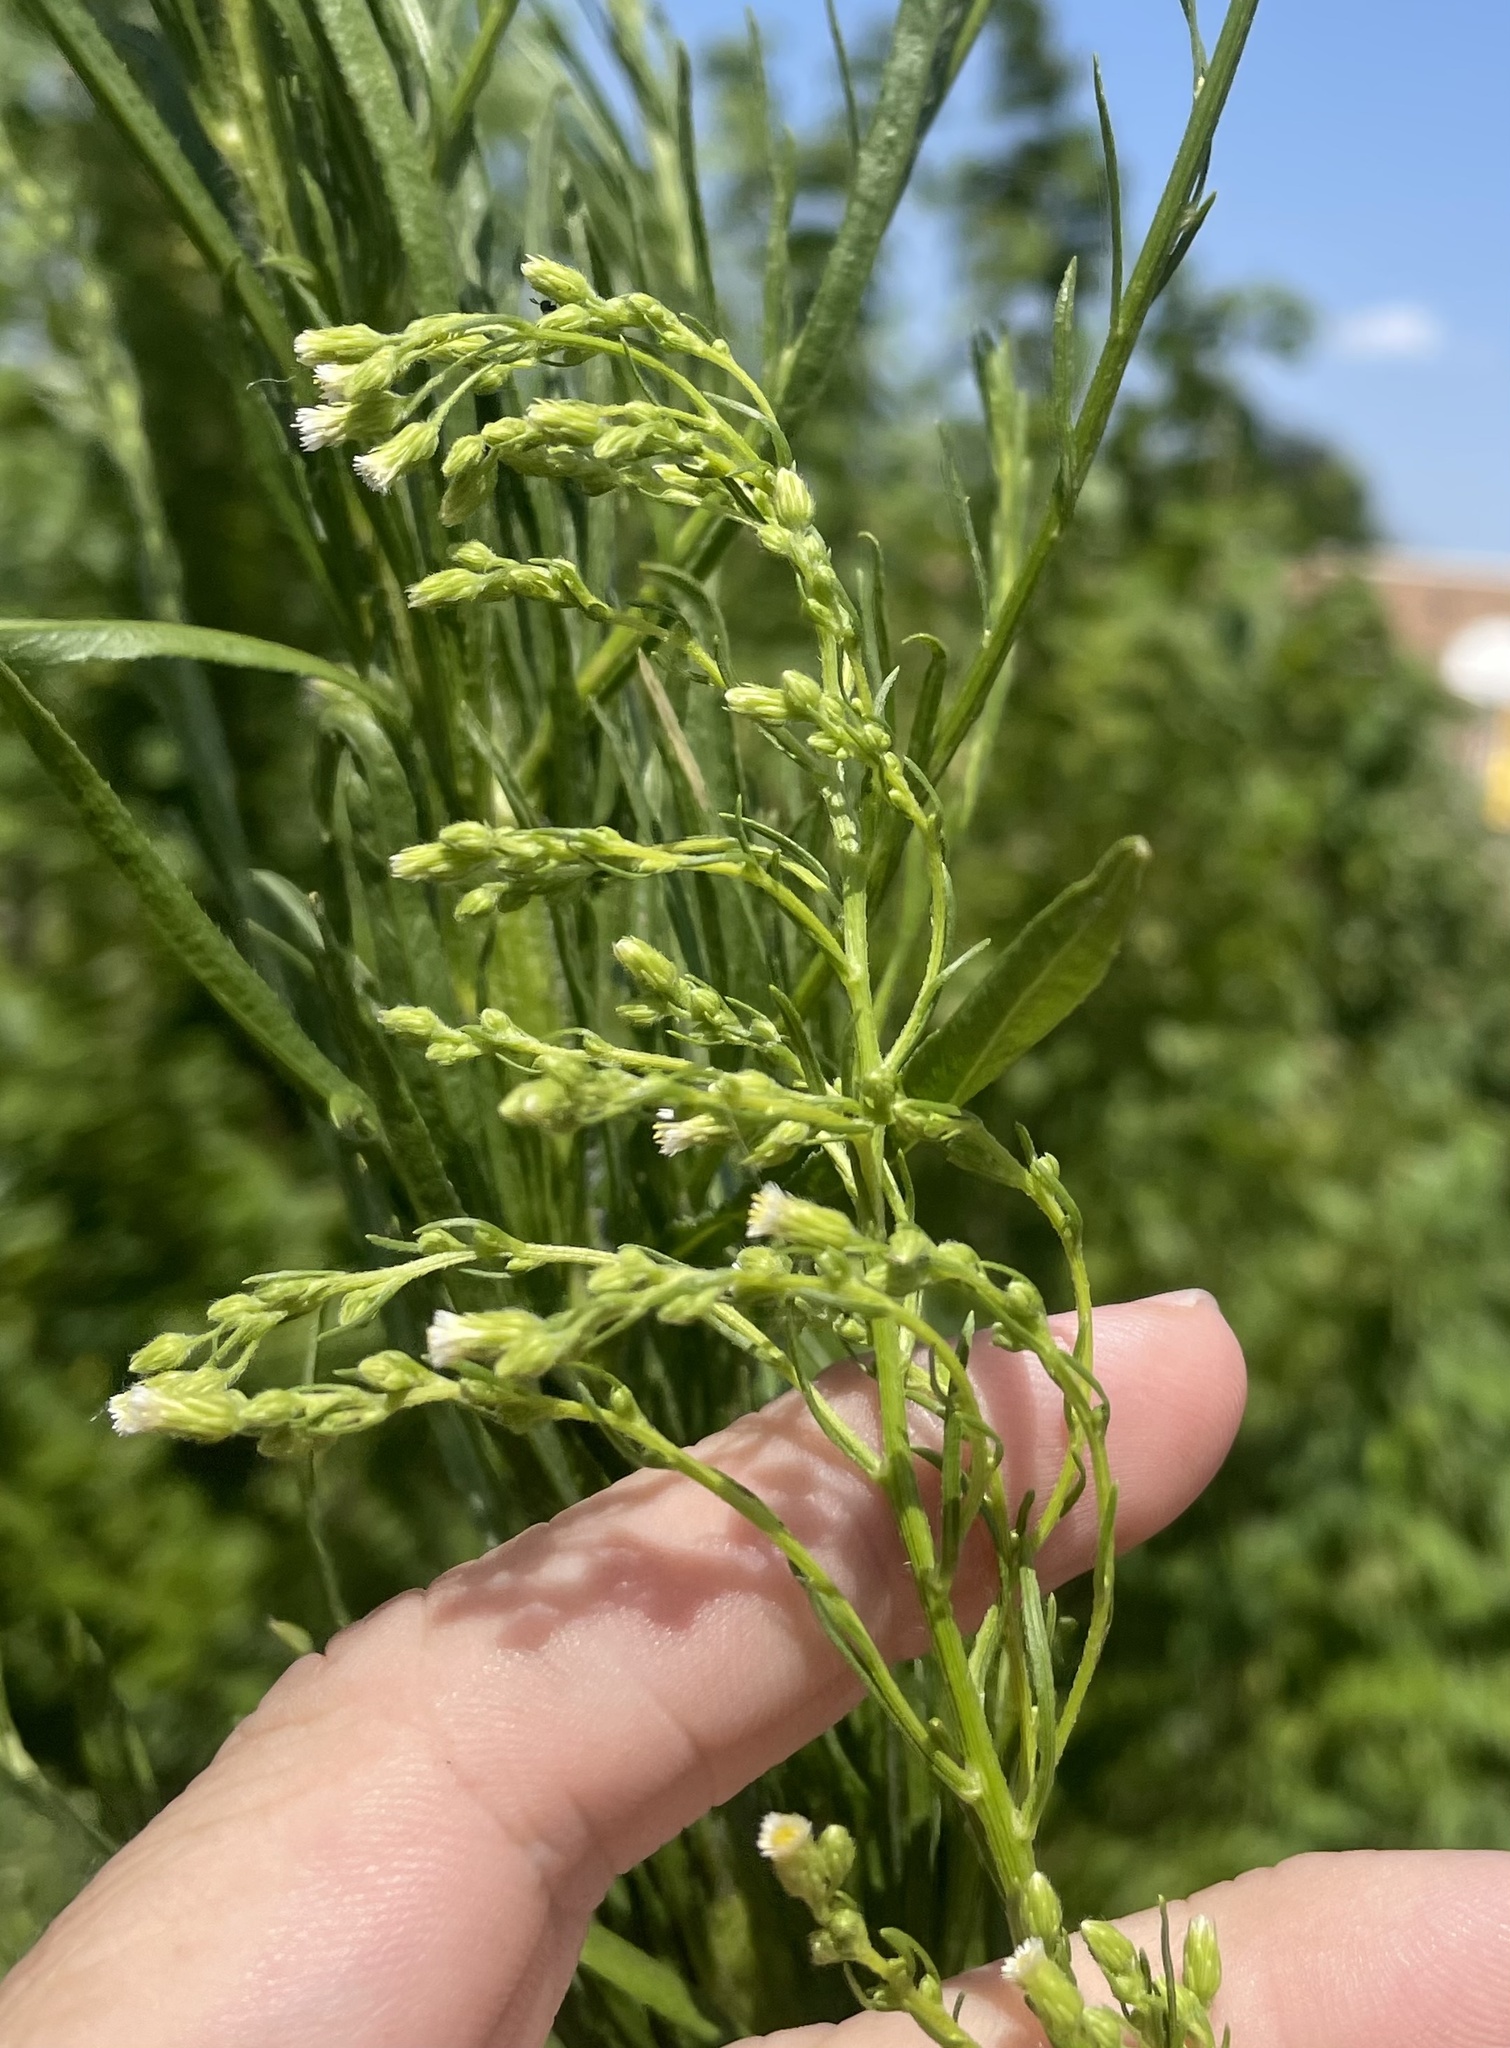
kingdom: Plantae
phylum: Tracheophyta
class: Magnoliopsida
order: Asterales
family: Asteraceae
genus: Erigeron
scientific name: Erigeron canadensis
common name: Canadian fleabane
